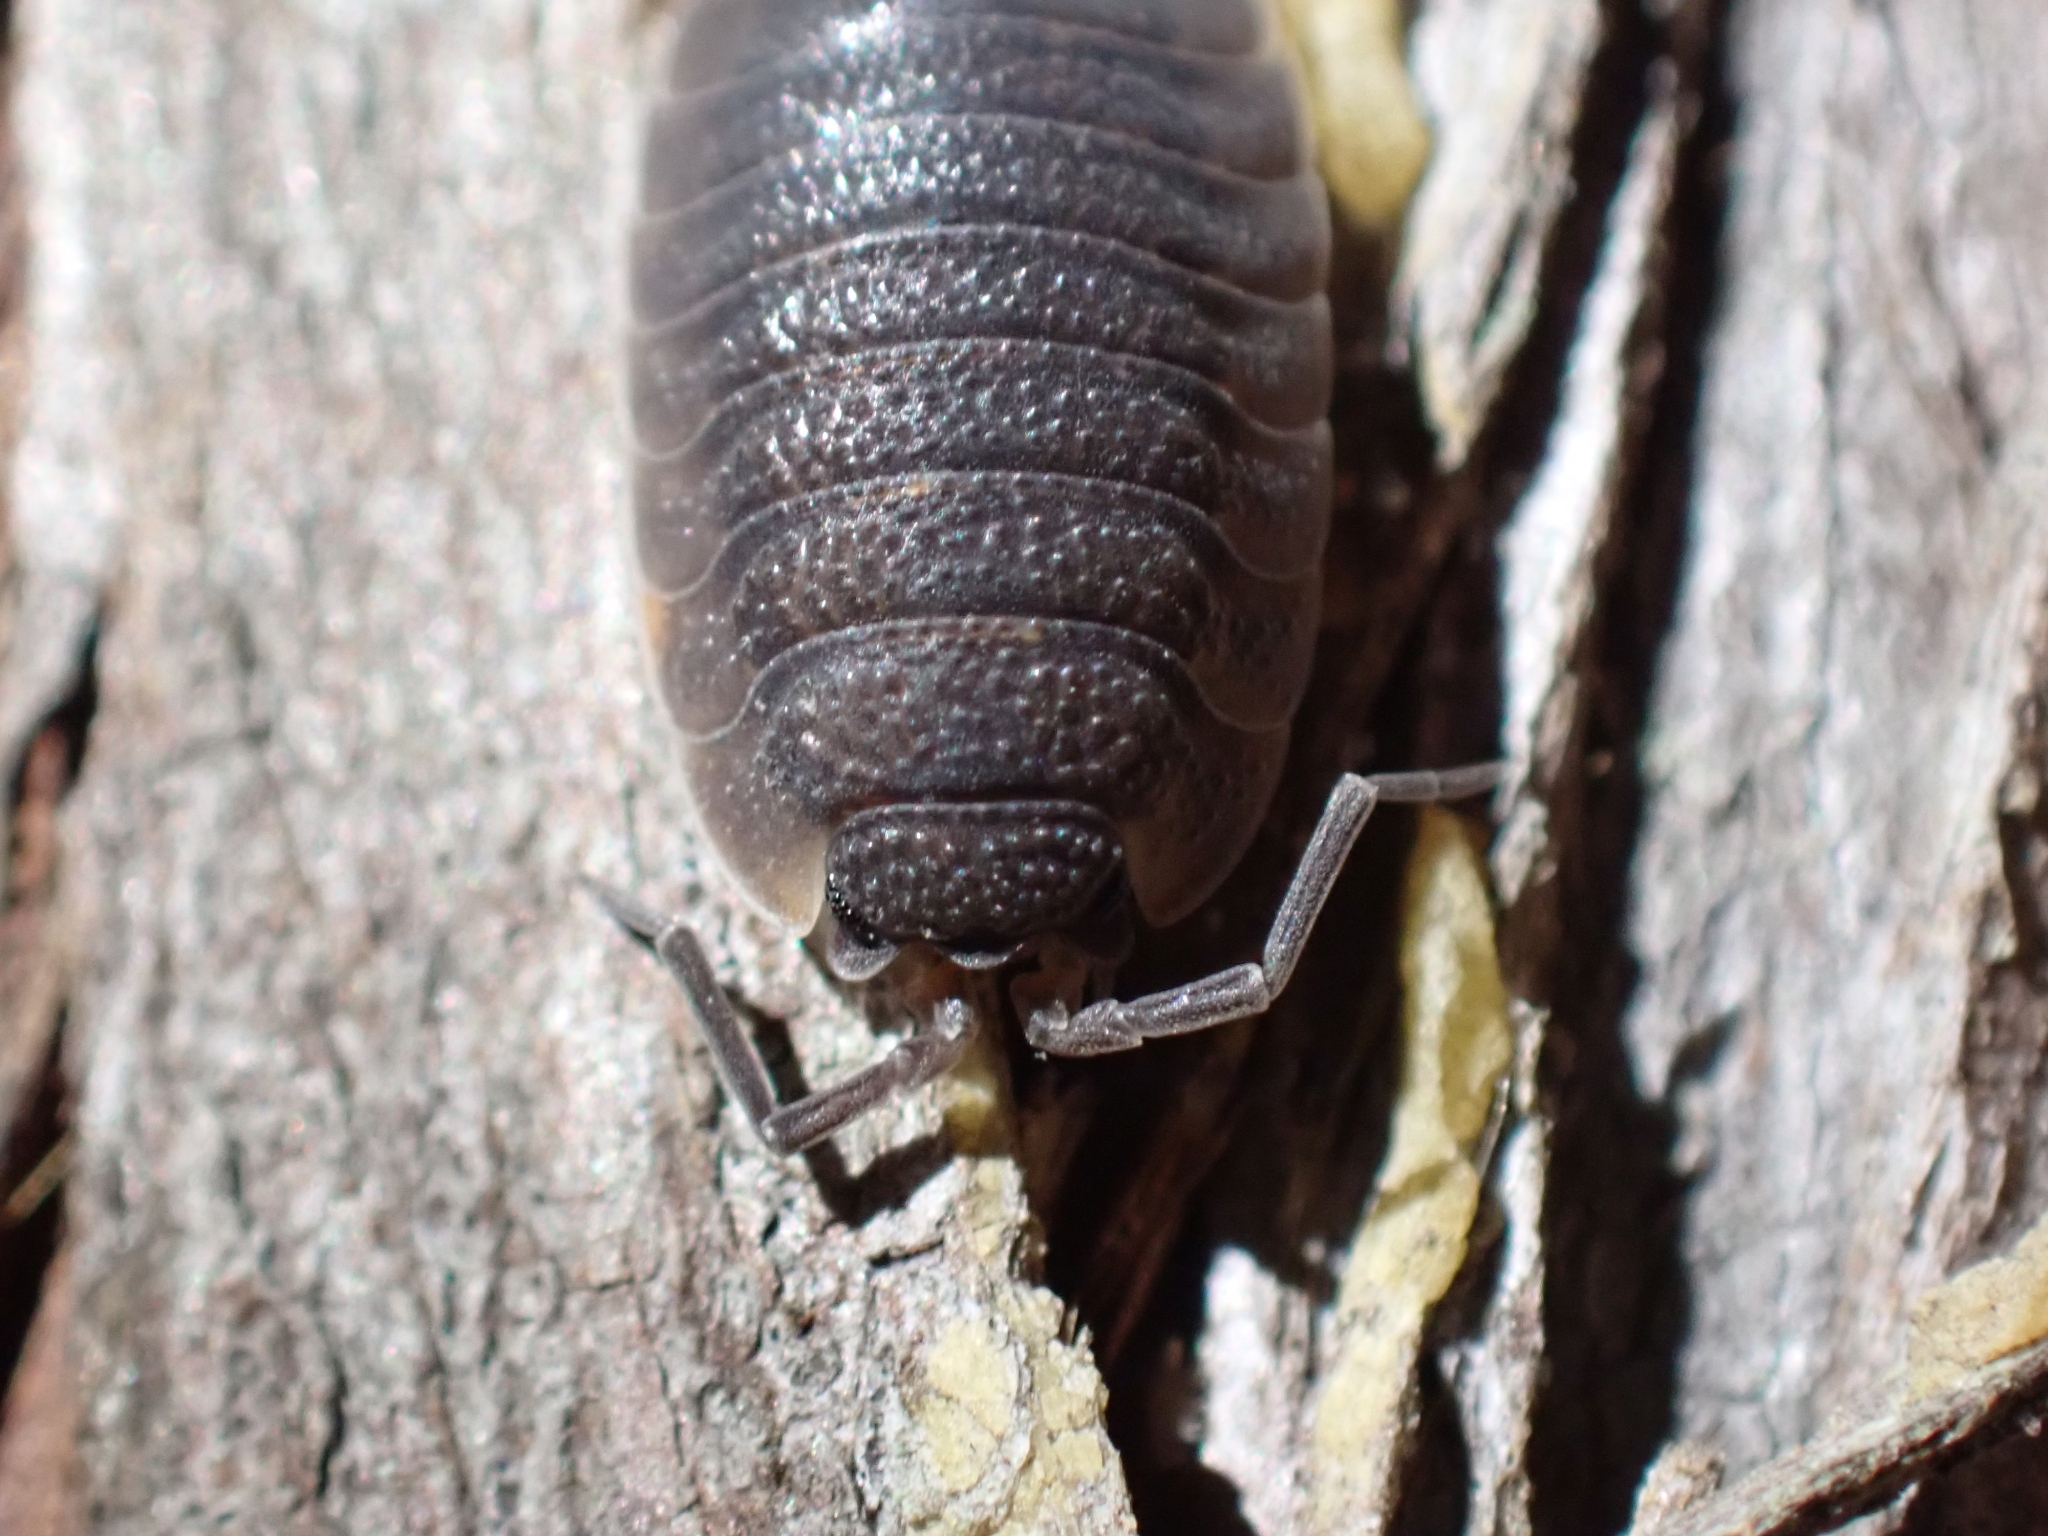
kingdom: Animalia
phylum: Arthropoda
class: Malacostraca
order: Isopoda
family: Porcellionidae
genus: Porcellio
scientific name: Porcellio scaber
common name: Common rough woodlouse
